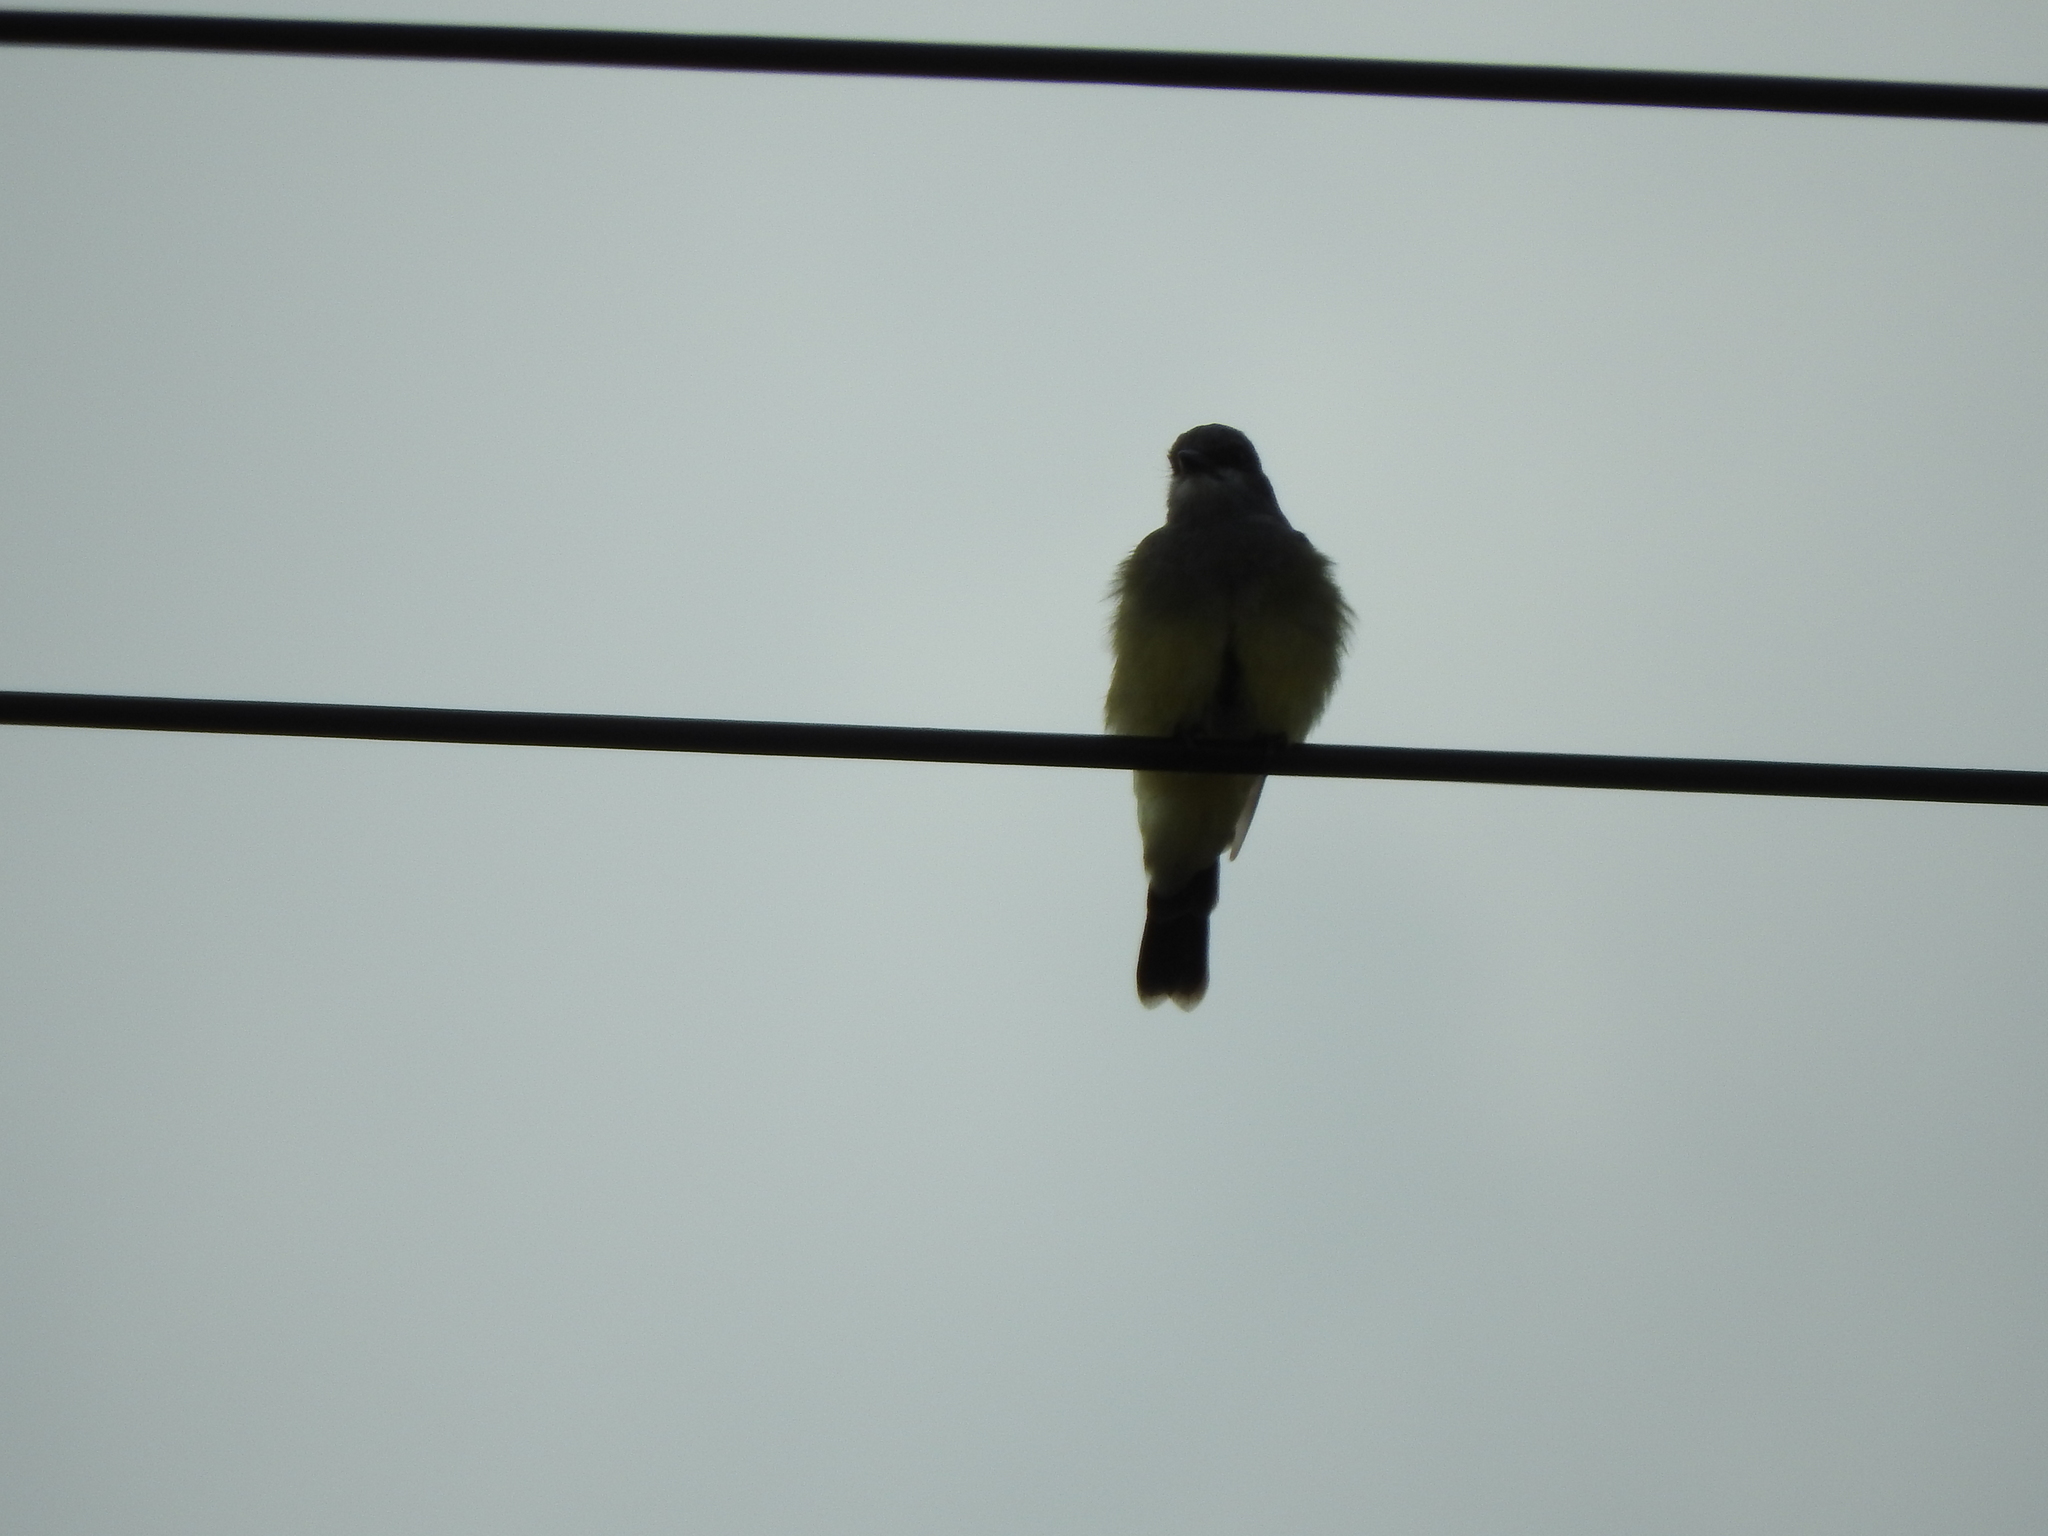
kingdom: Animalia
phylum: Chordata
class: Aves
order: Passeriformes
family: Tyrannidae
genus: Tyrannus
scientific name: Tyrannus vociferans
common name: Cassin's kingbird
